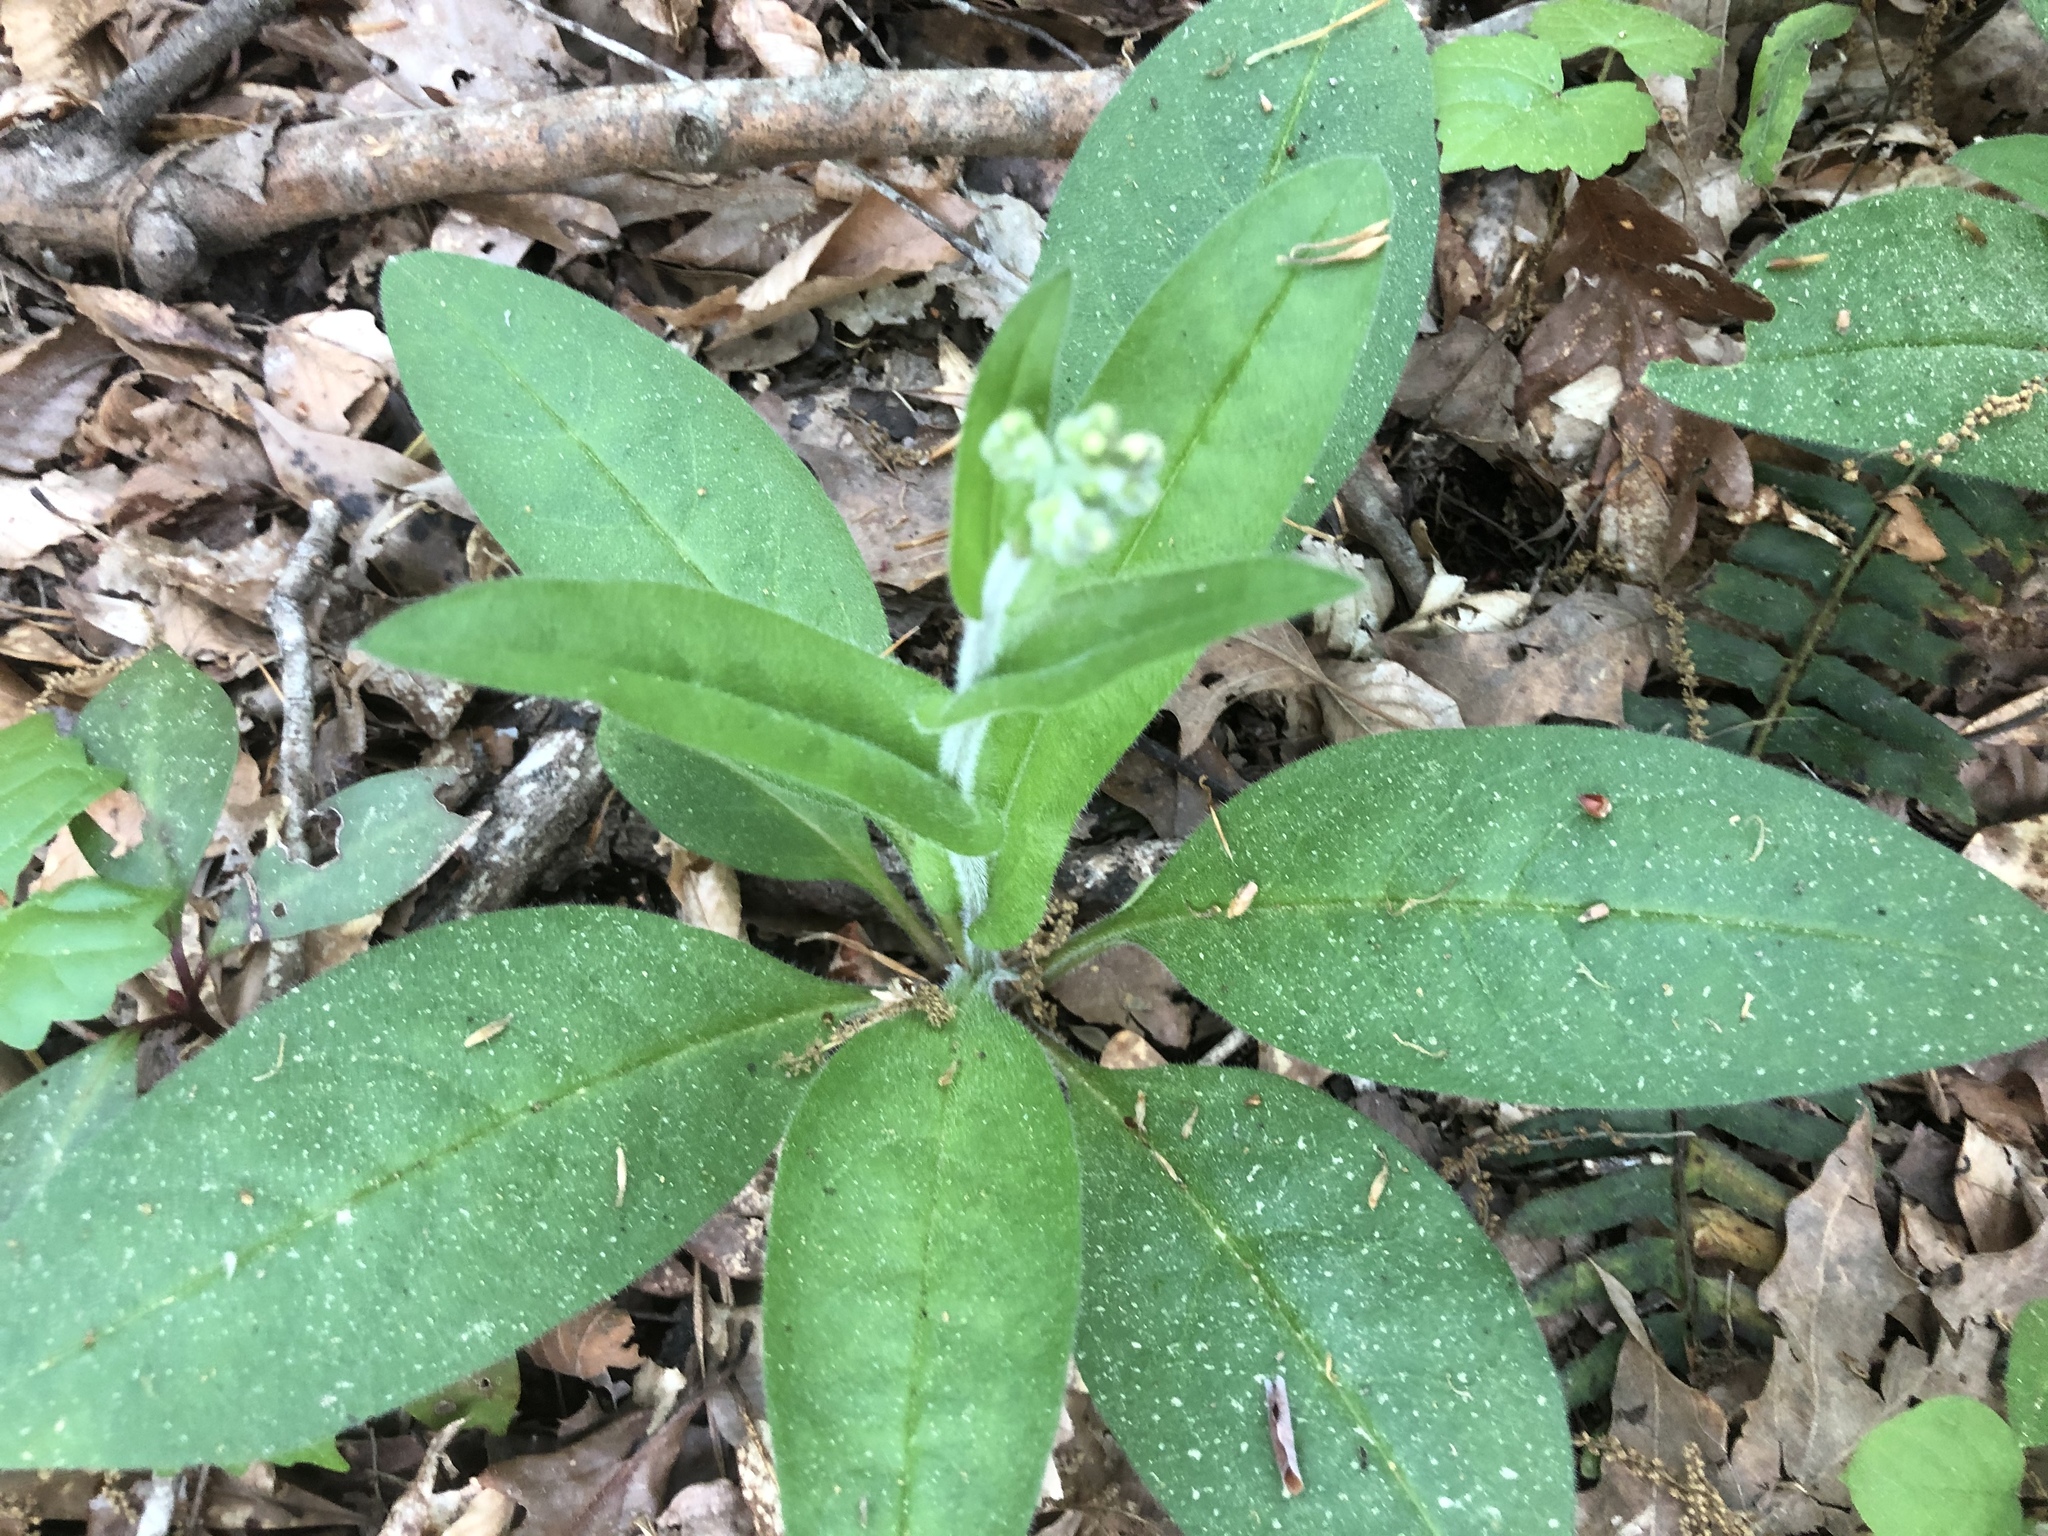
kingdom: Plantae
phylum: Tracheophyta
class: Magnoliopsida
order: Boraginales
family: Boraginaceae
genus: Andersonglossum
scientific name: Andersonglossum virginianum
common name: Wild comfrey
